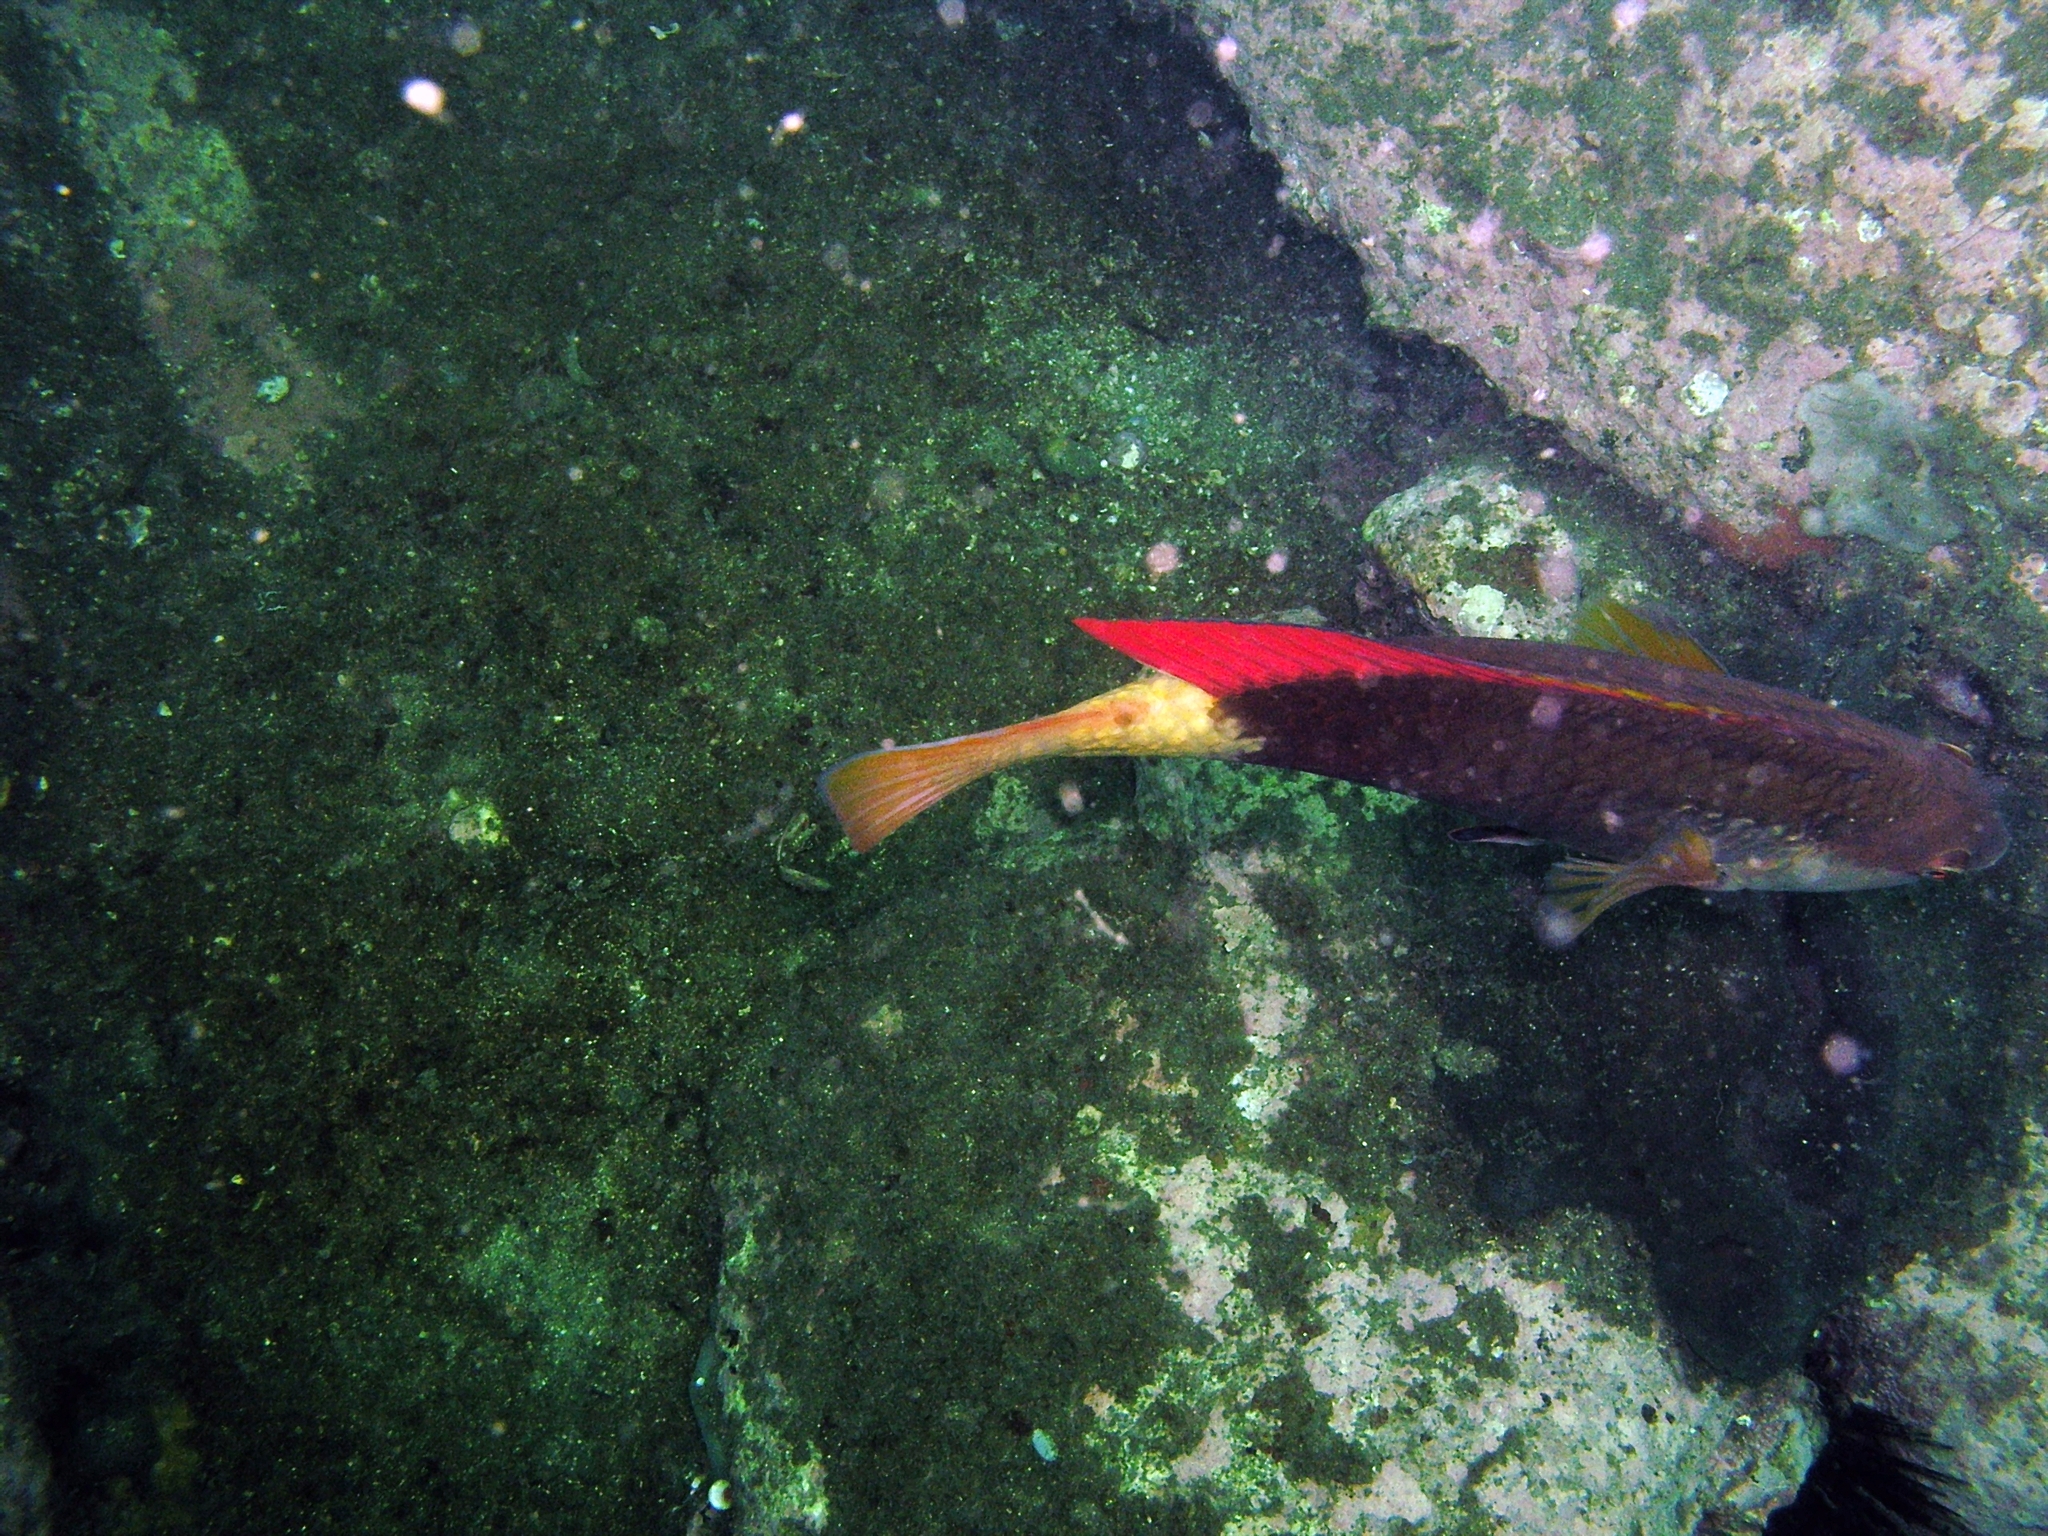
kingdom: Animalia
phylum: Chordata
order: Perciformes
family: Labridae
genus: Notolabrus
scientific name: Notolabrus gymnogenis
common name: Crimson banded wrasse
